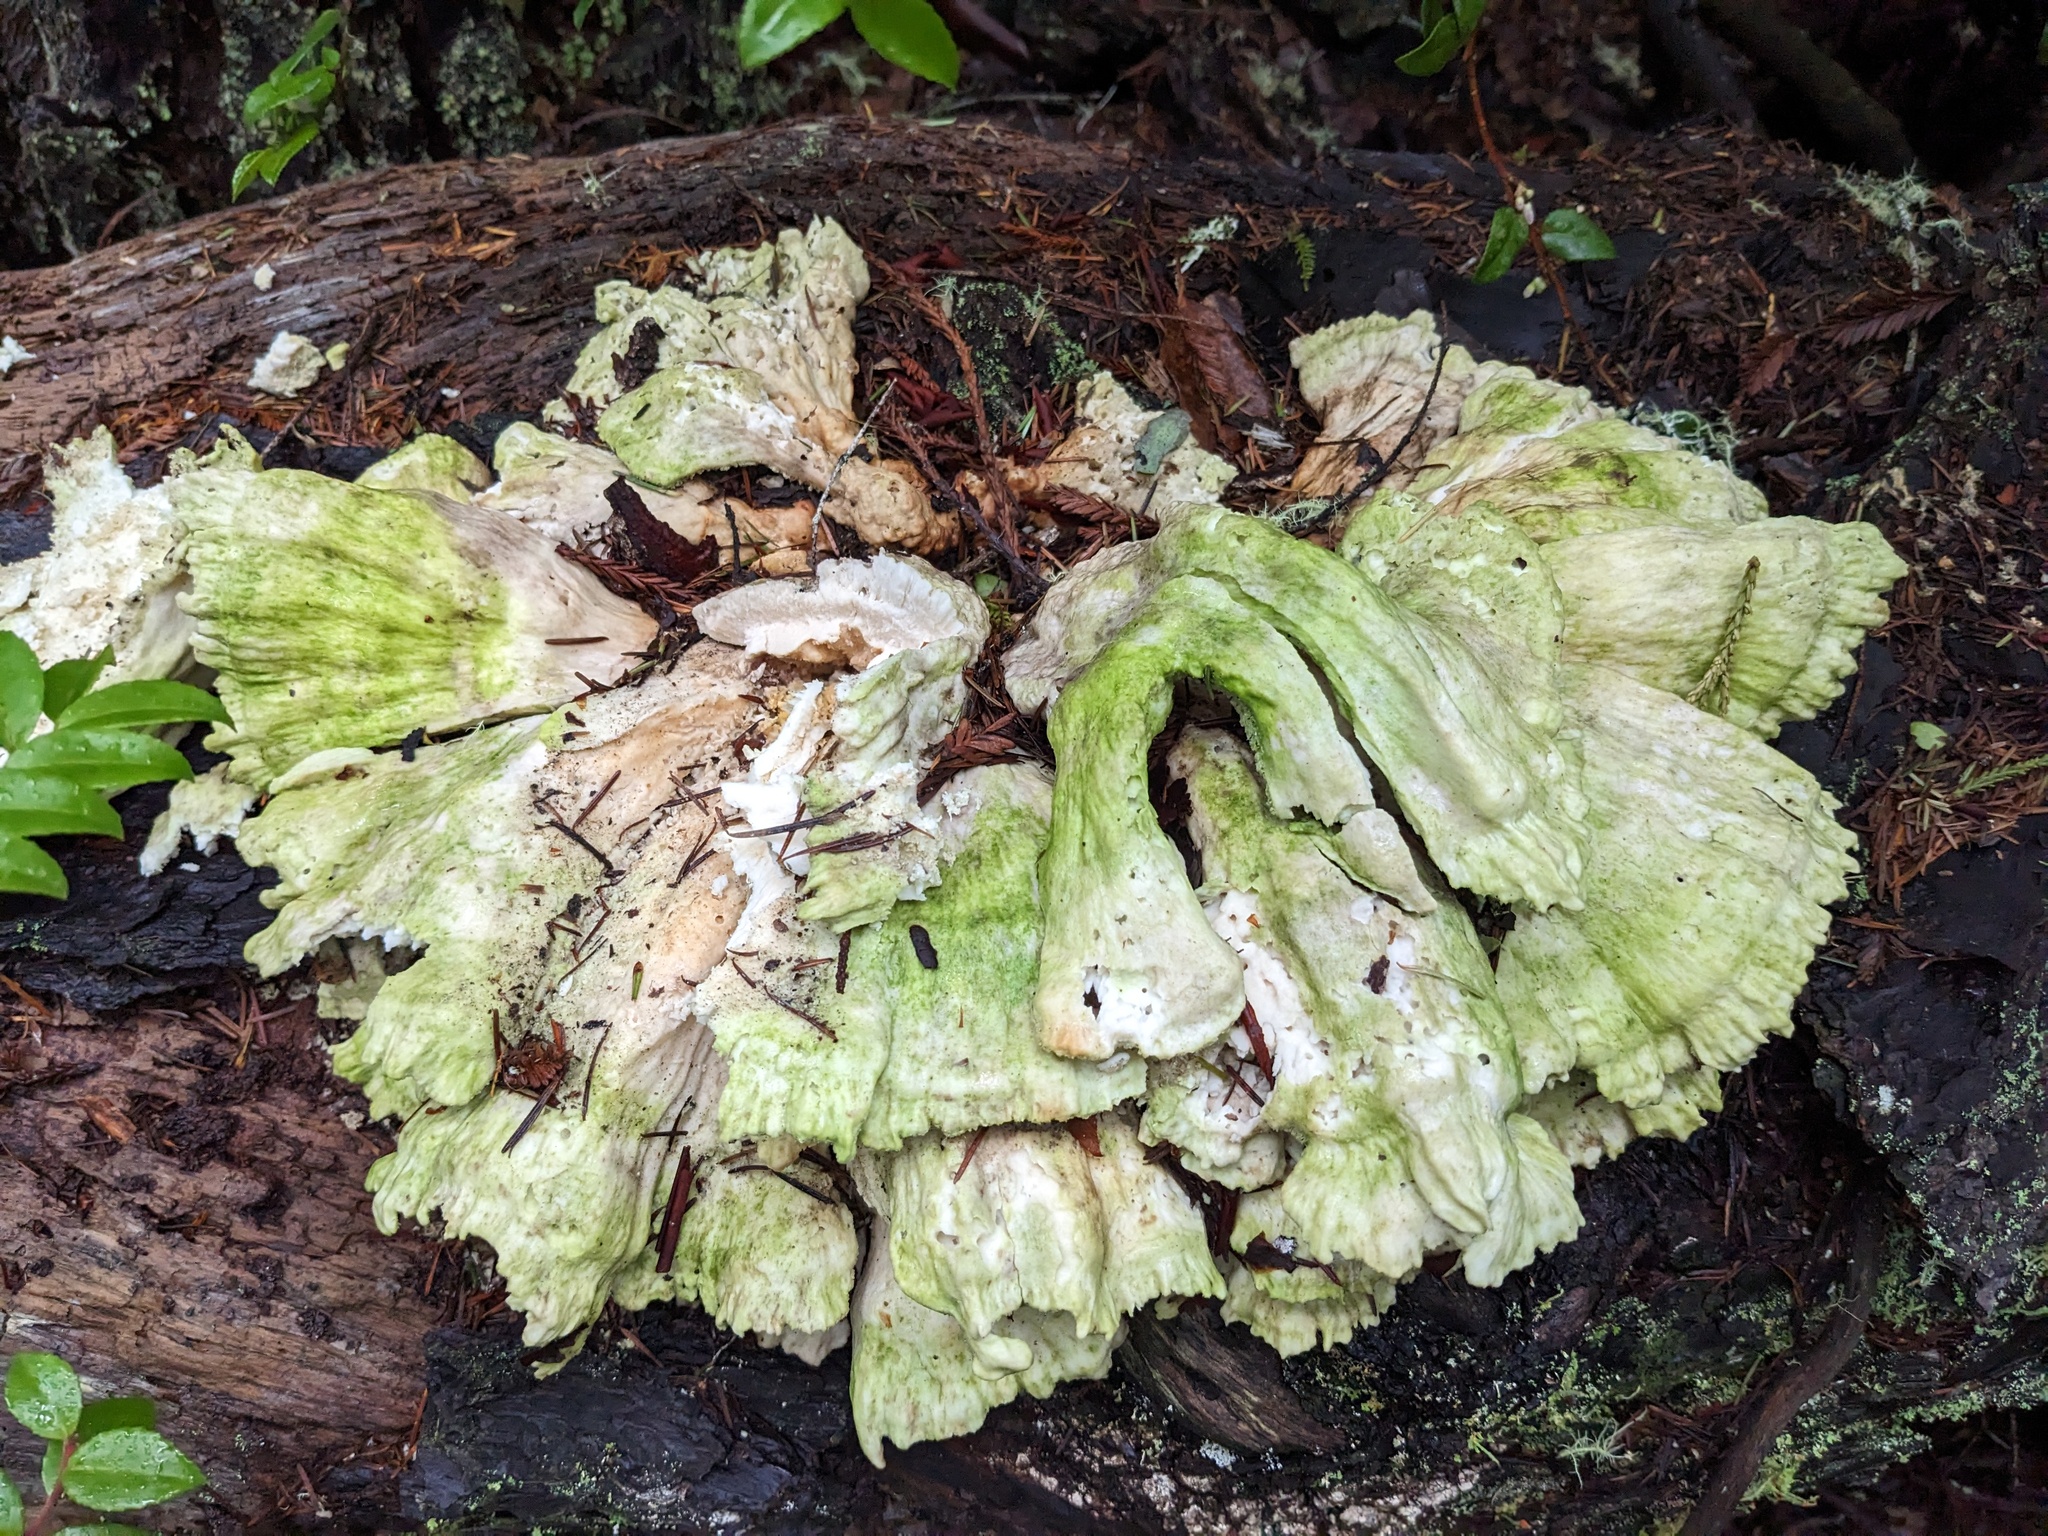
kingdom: Fungi
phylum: Basidiomycota
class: Agaricomycetes
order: Polyporales
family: Laetiporaceae
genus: Laetiporus
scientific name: Laetiporus conifericola
